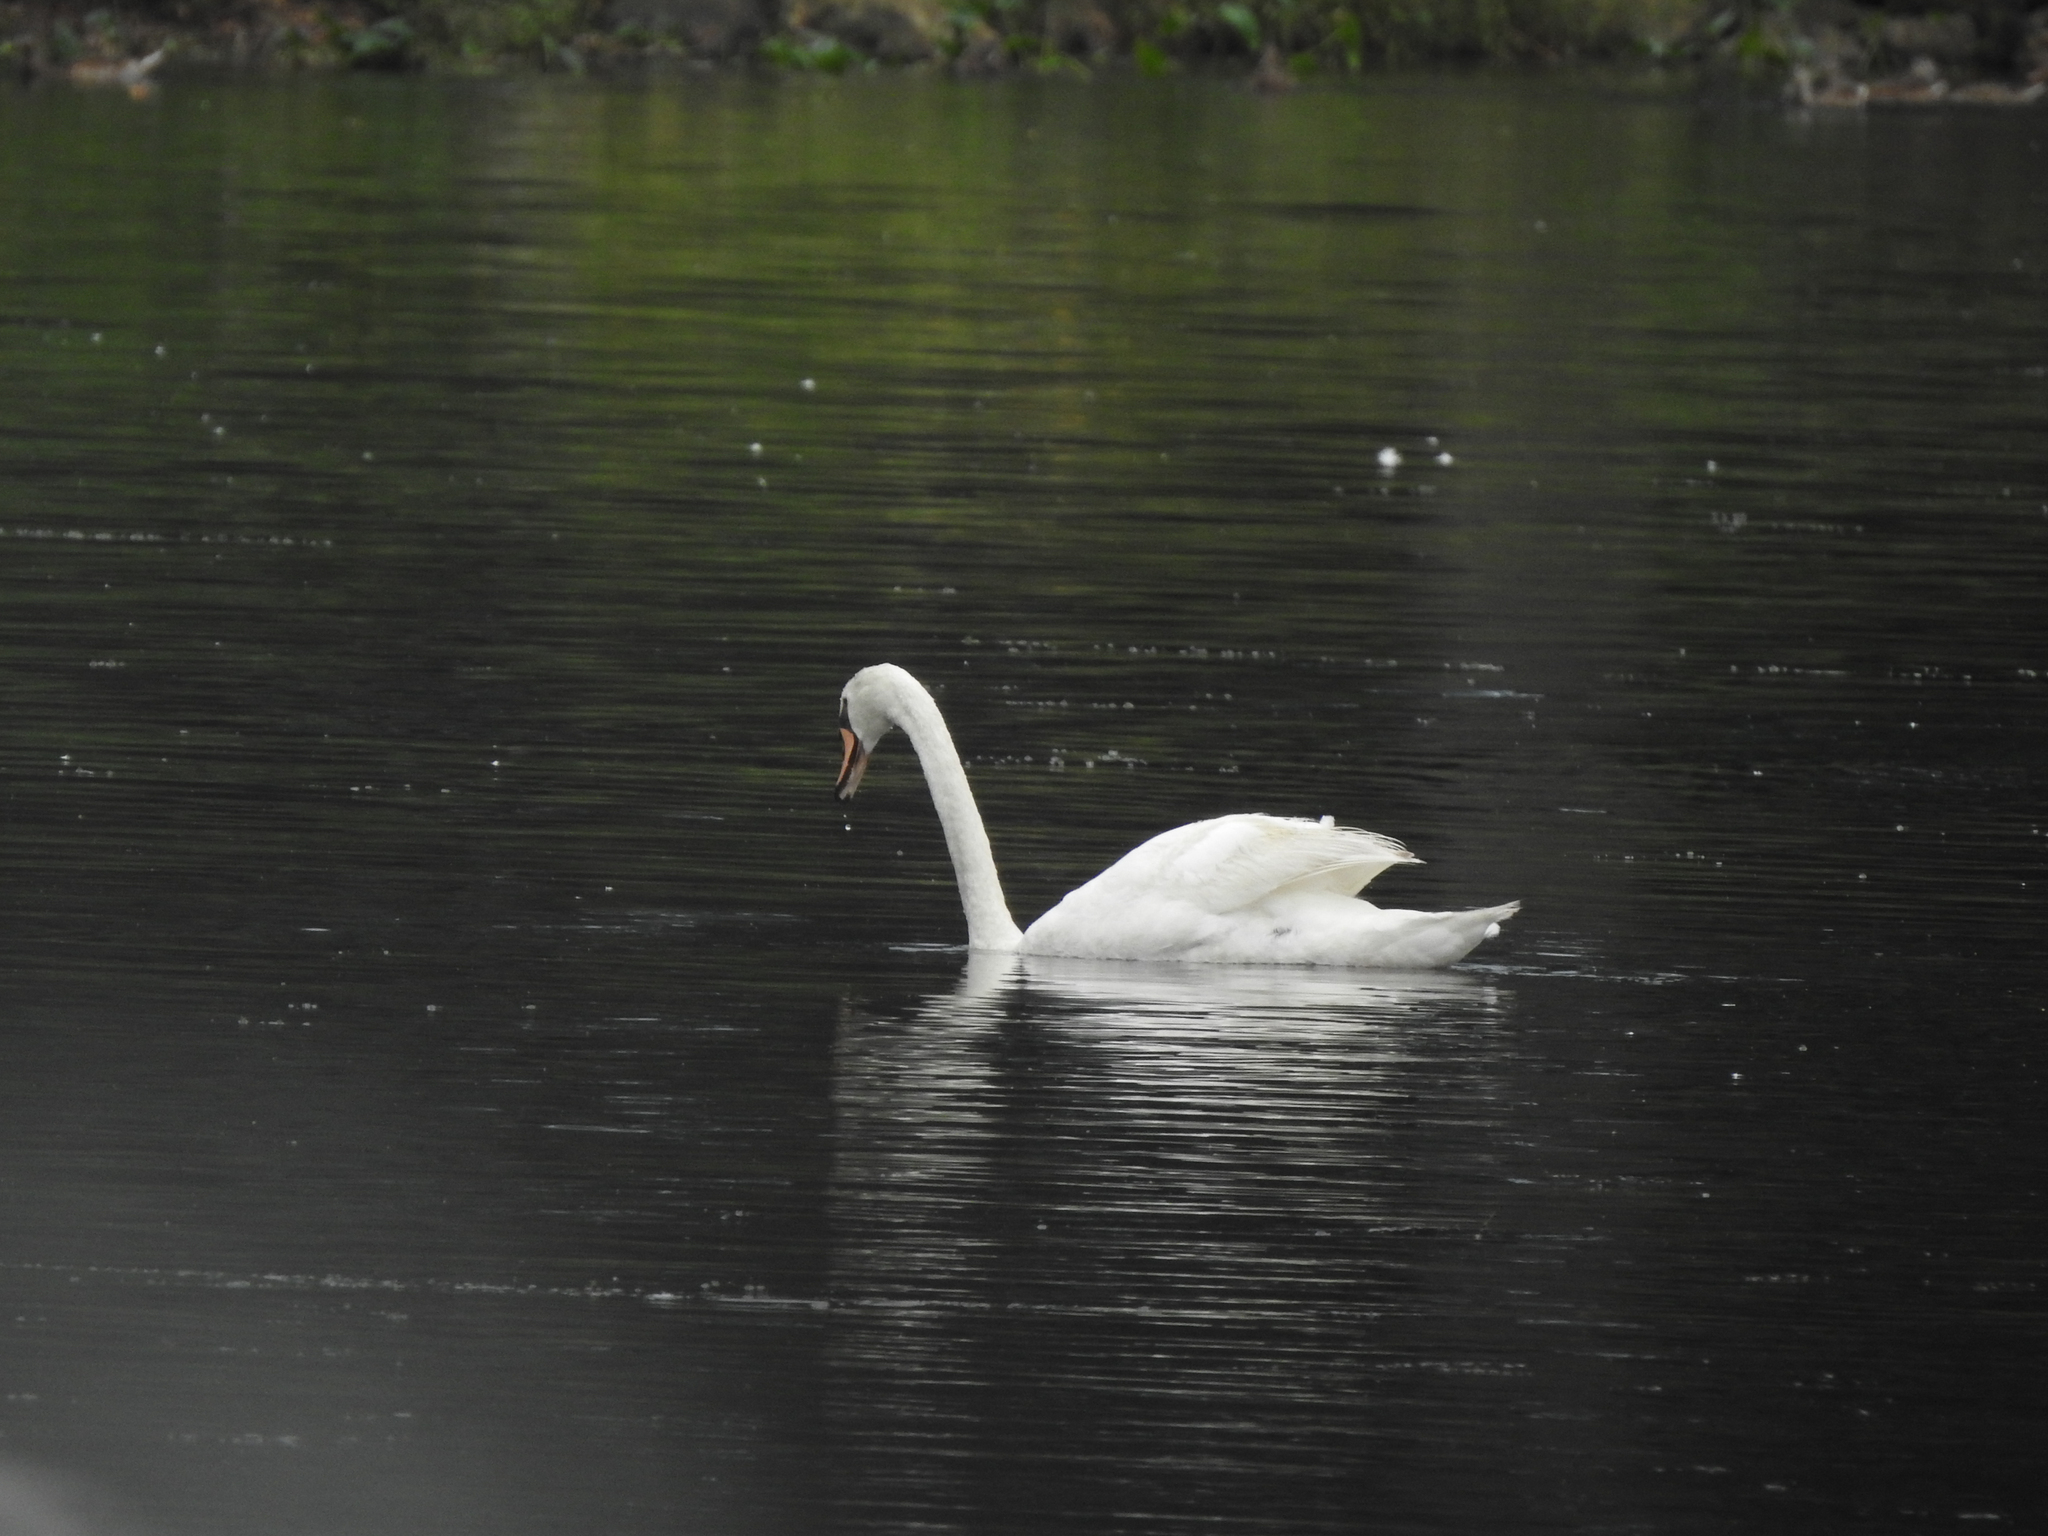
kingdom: Animalia
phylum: Chordata
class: Aves
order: Anseriformes
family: Anatidae
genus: Cygnus
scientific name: Cygnus olor
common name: Mute swan
